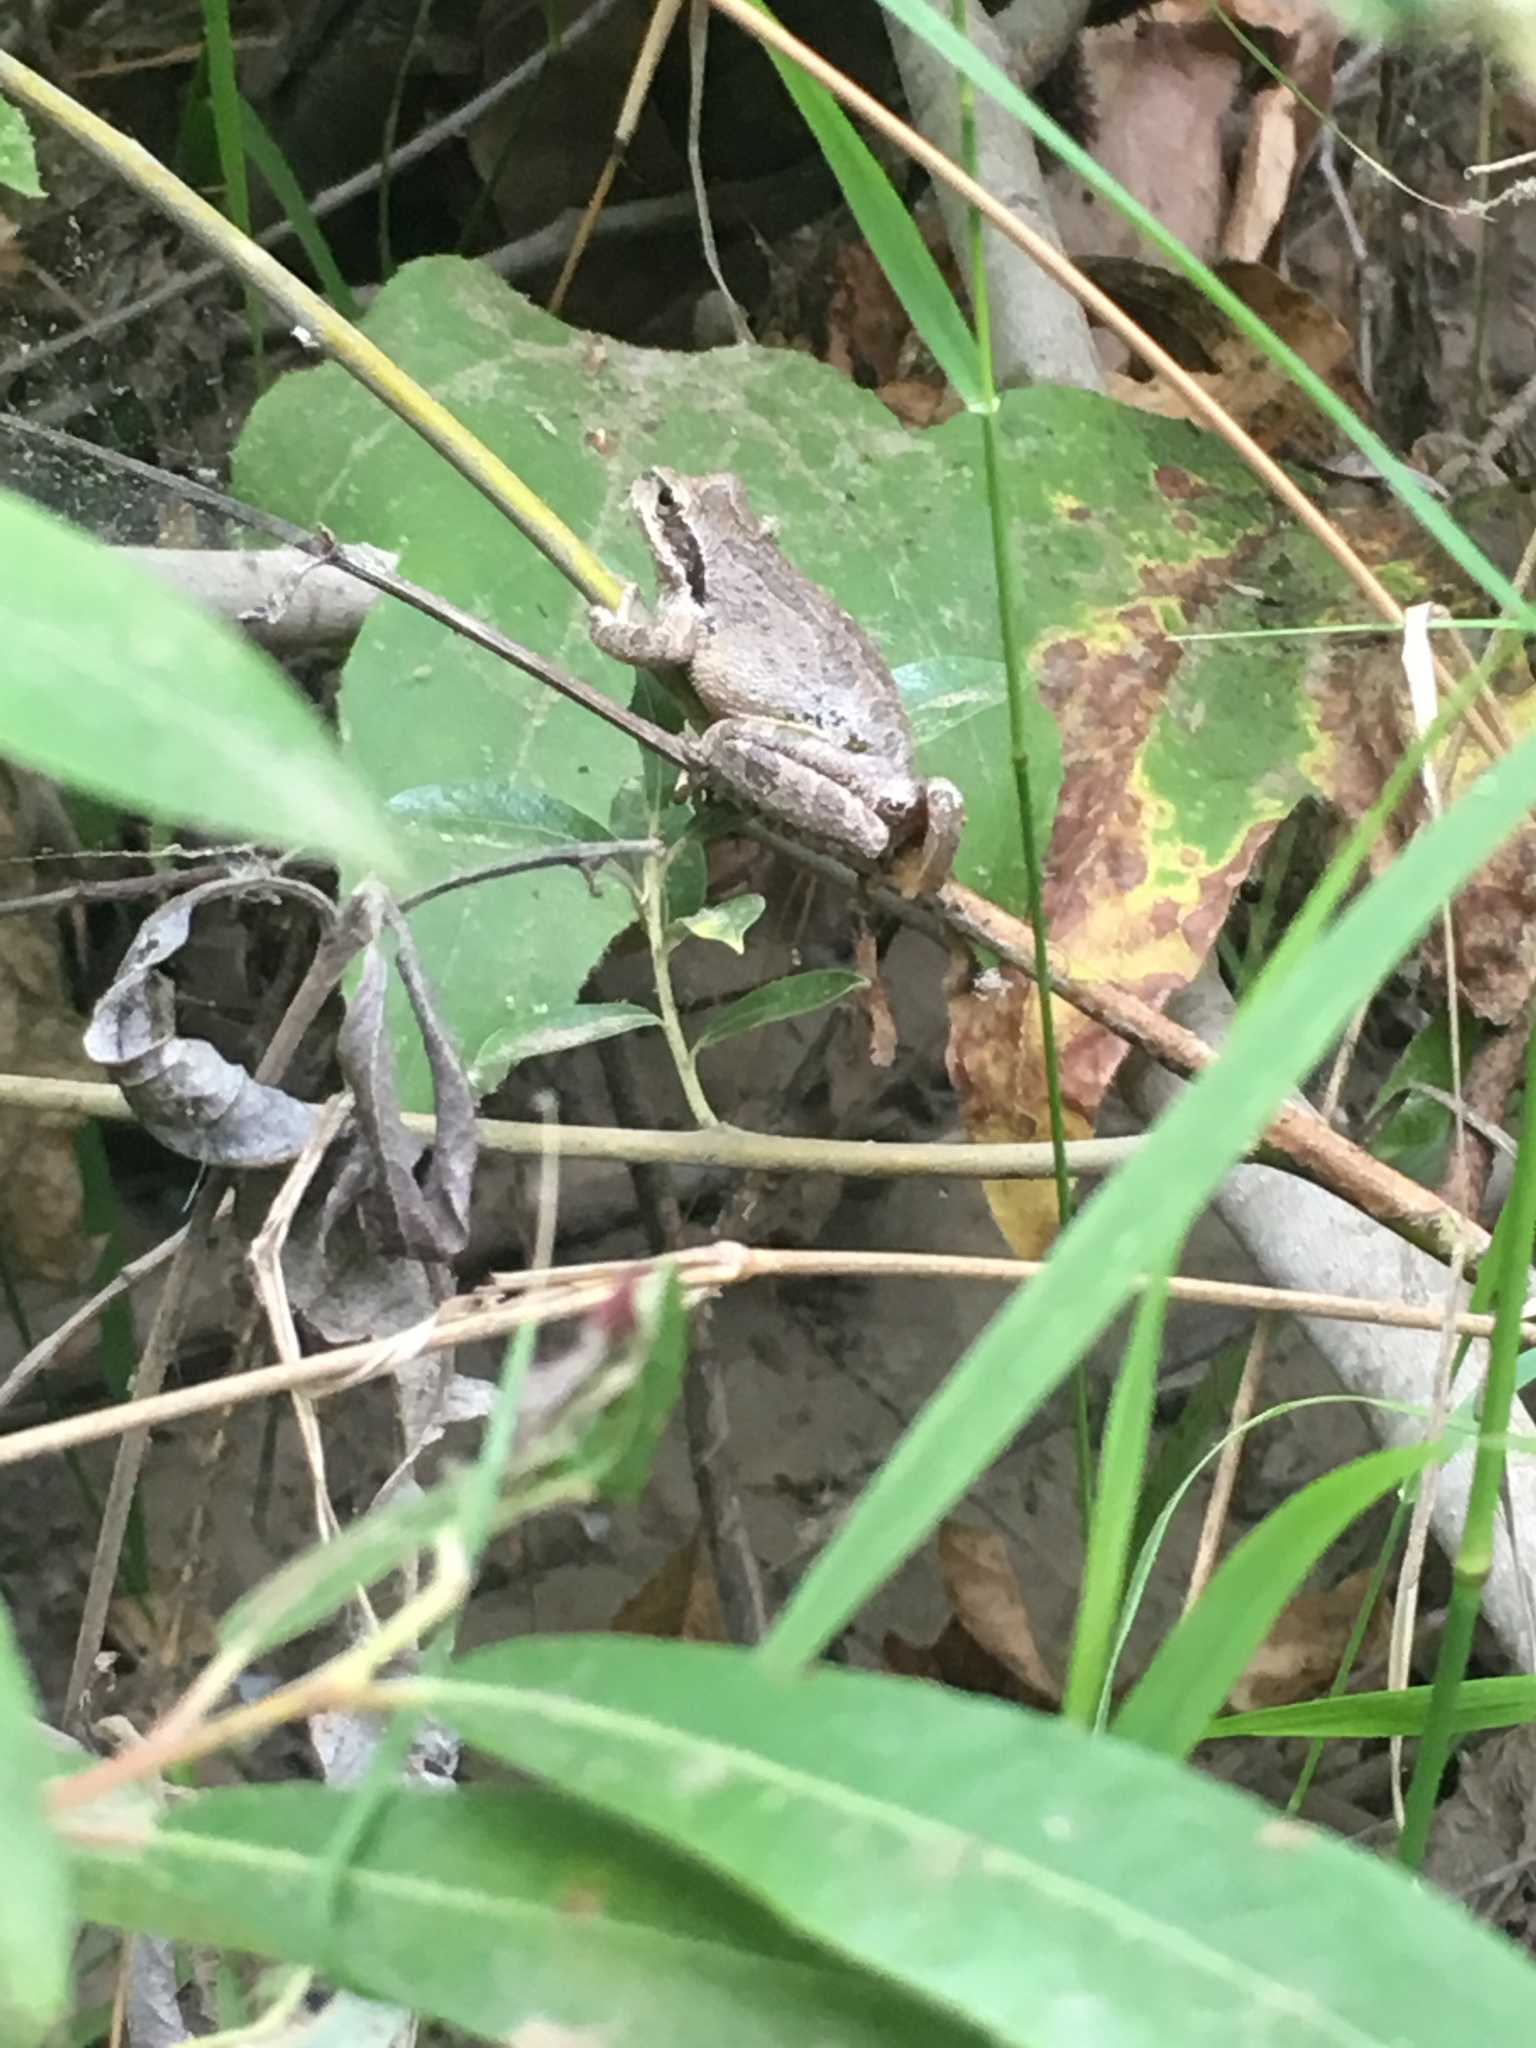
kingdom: Animalia
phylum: Chordata
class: Amphibia
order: Anura
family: Hylidae
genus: Pseudacris
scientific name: Pseudacris regilla
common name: Pacific chorus frog
